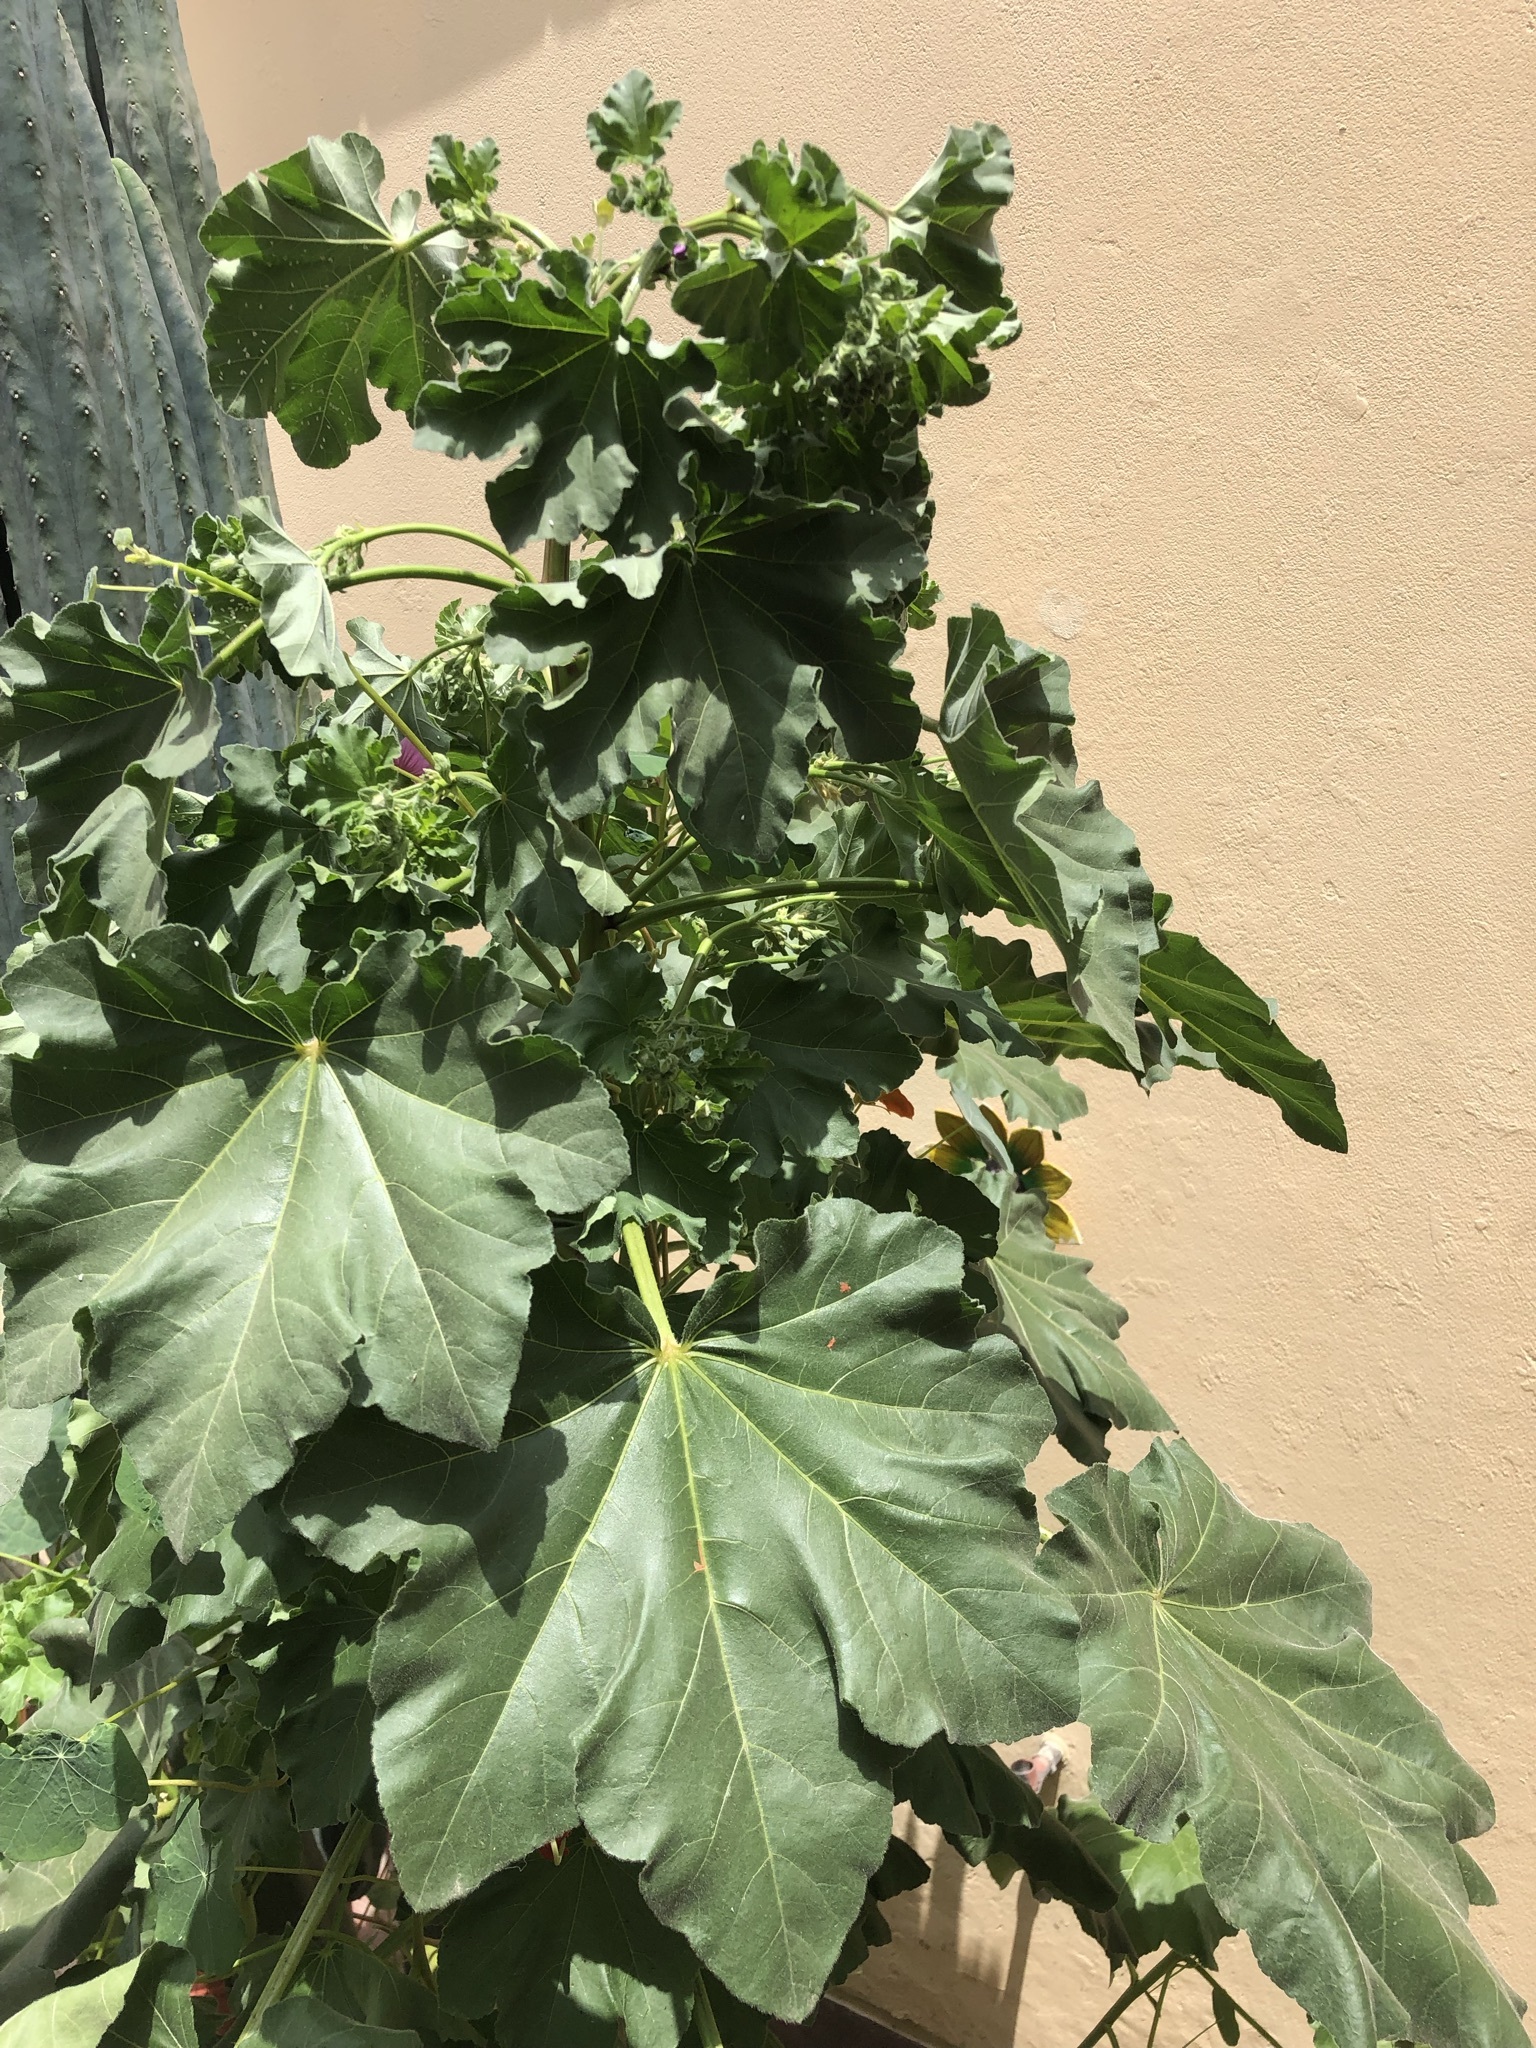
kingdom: Plantae
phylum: Tracheophyta
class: Magnoliopsida
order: Malvales
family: Malvaceae
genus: Malva
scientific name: Malva arborea
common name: Tree mallow
